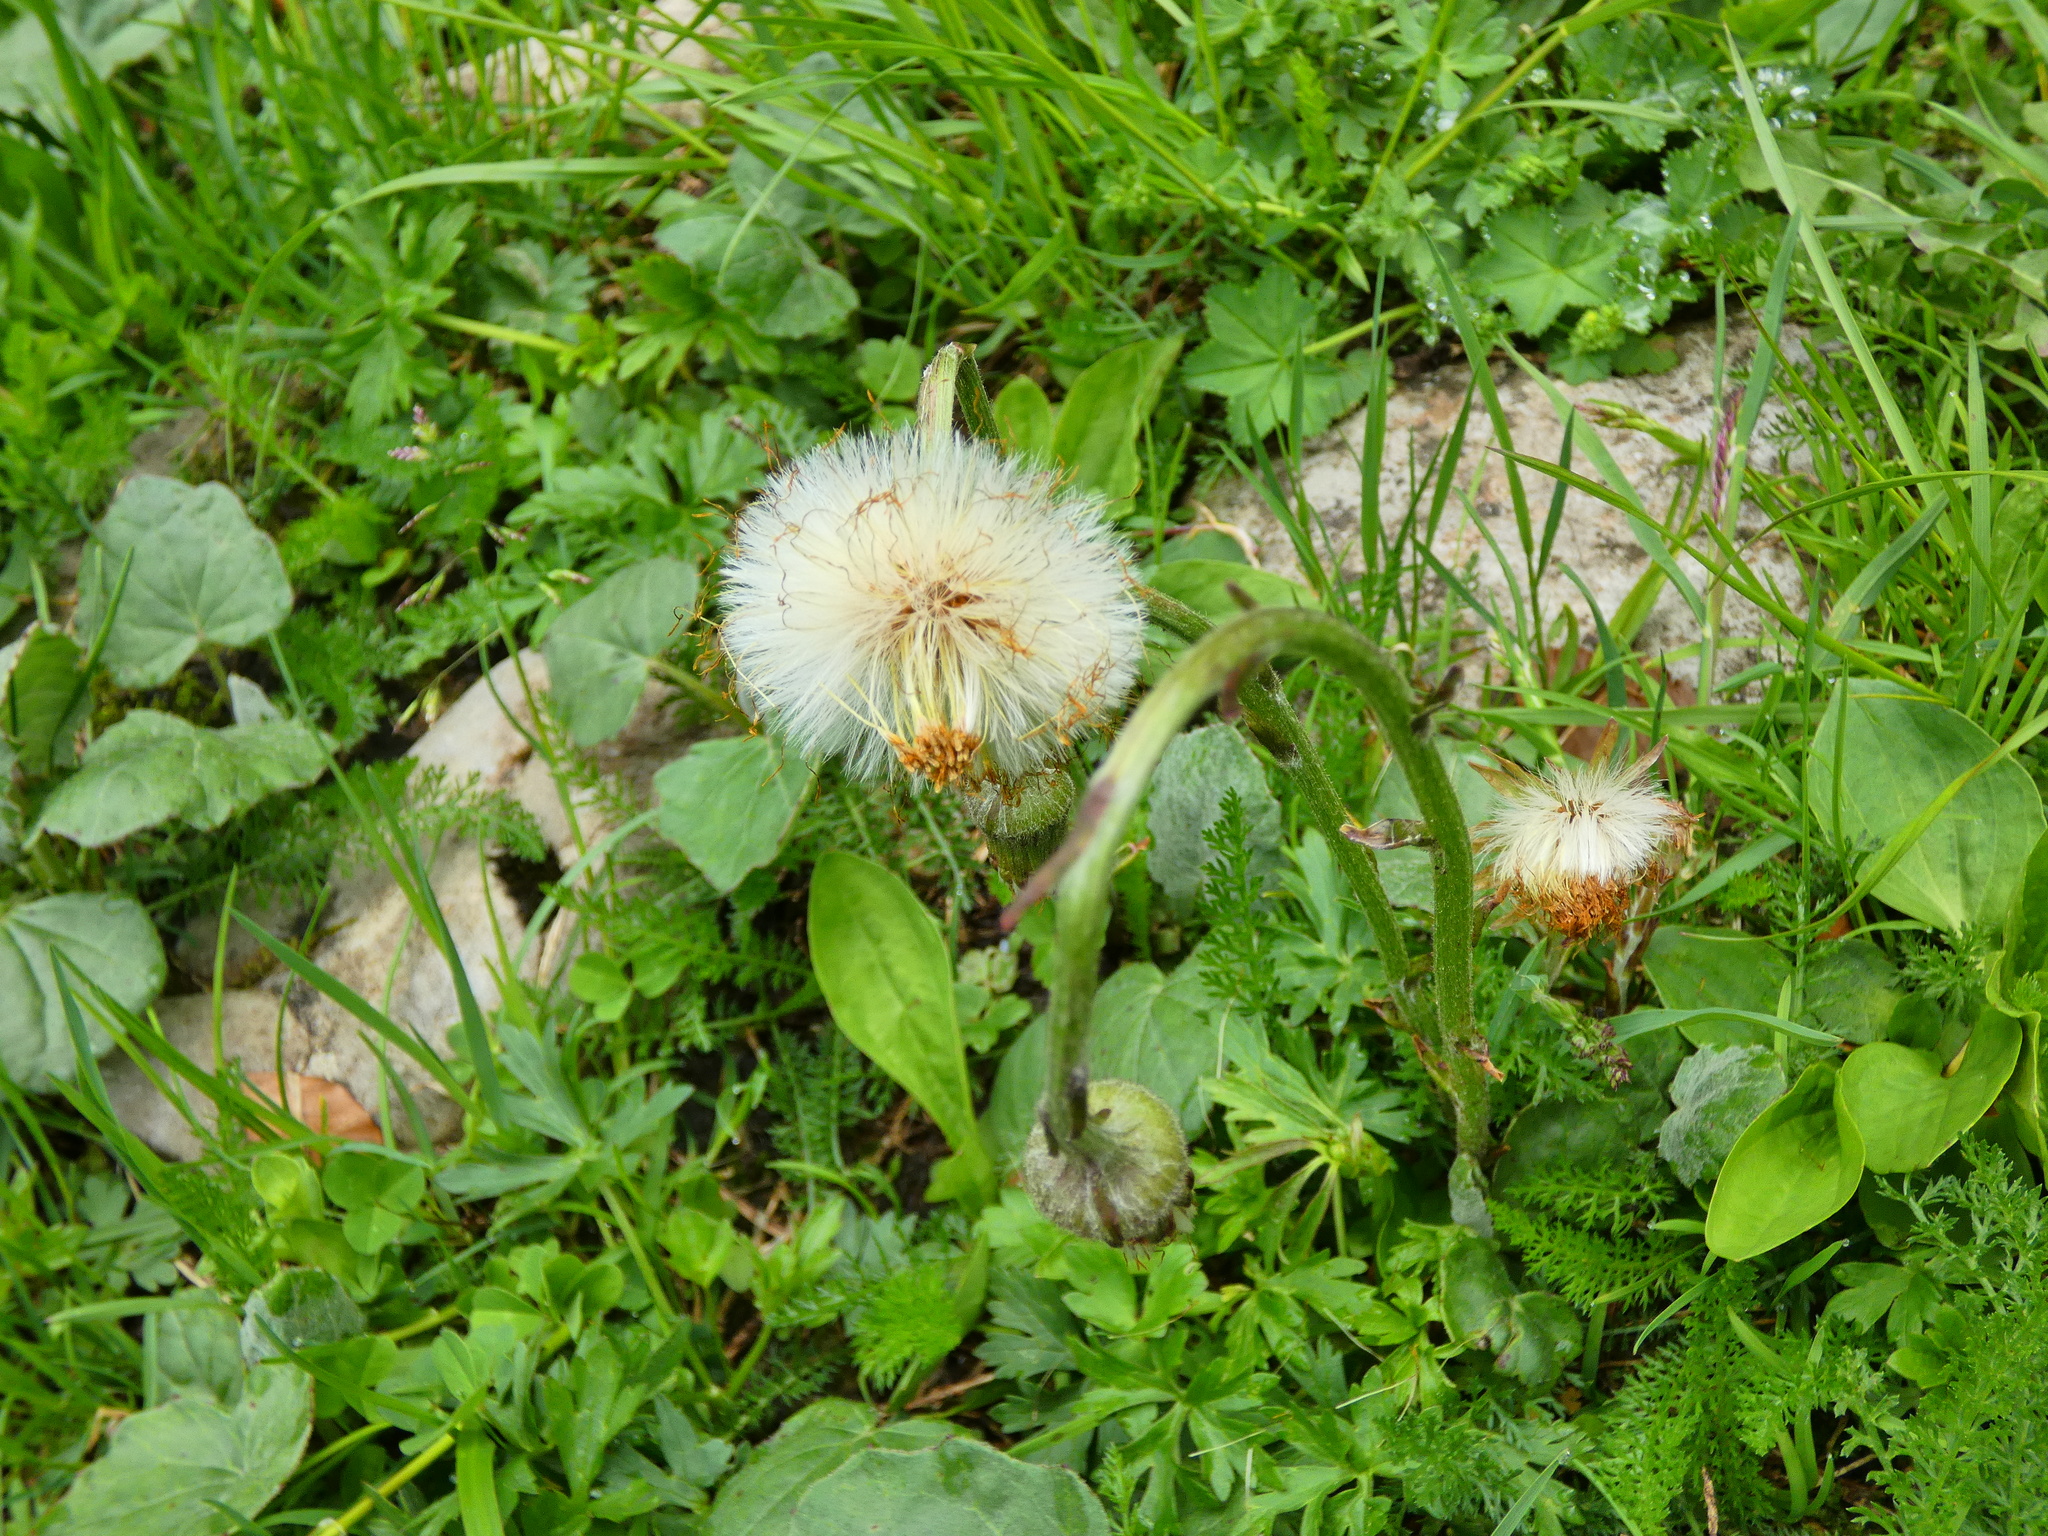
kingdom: Plantae
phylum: Tracheophyta
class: Magnoliopsida
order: Asterales
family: Asteraceae
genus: Tussilago
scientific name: Tussilago farfara
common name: Coltsfoot
